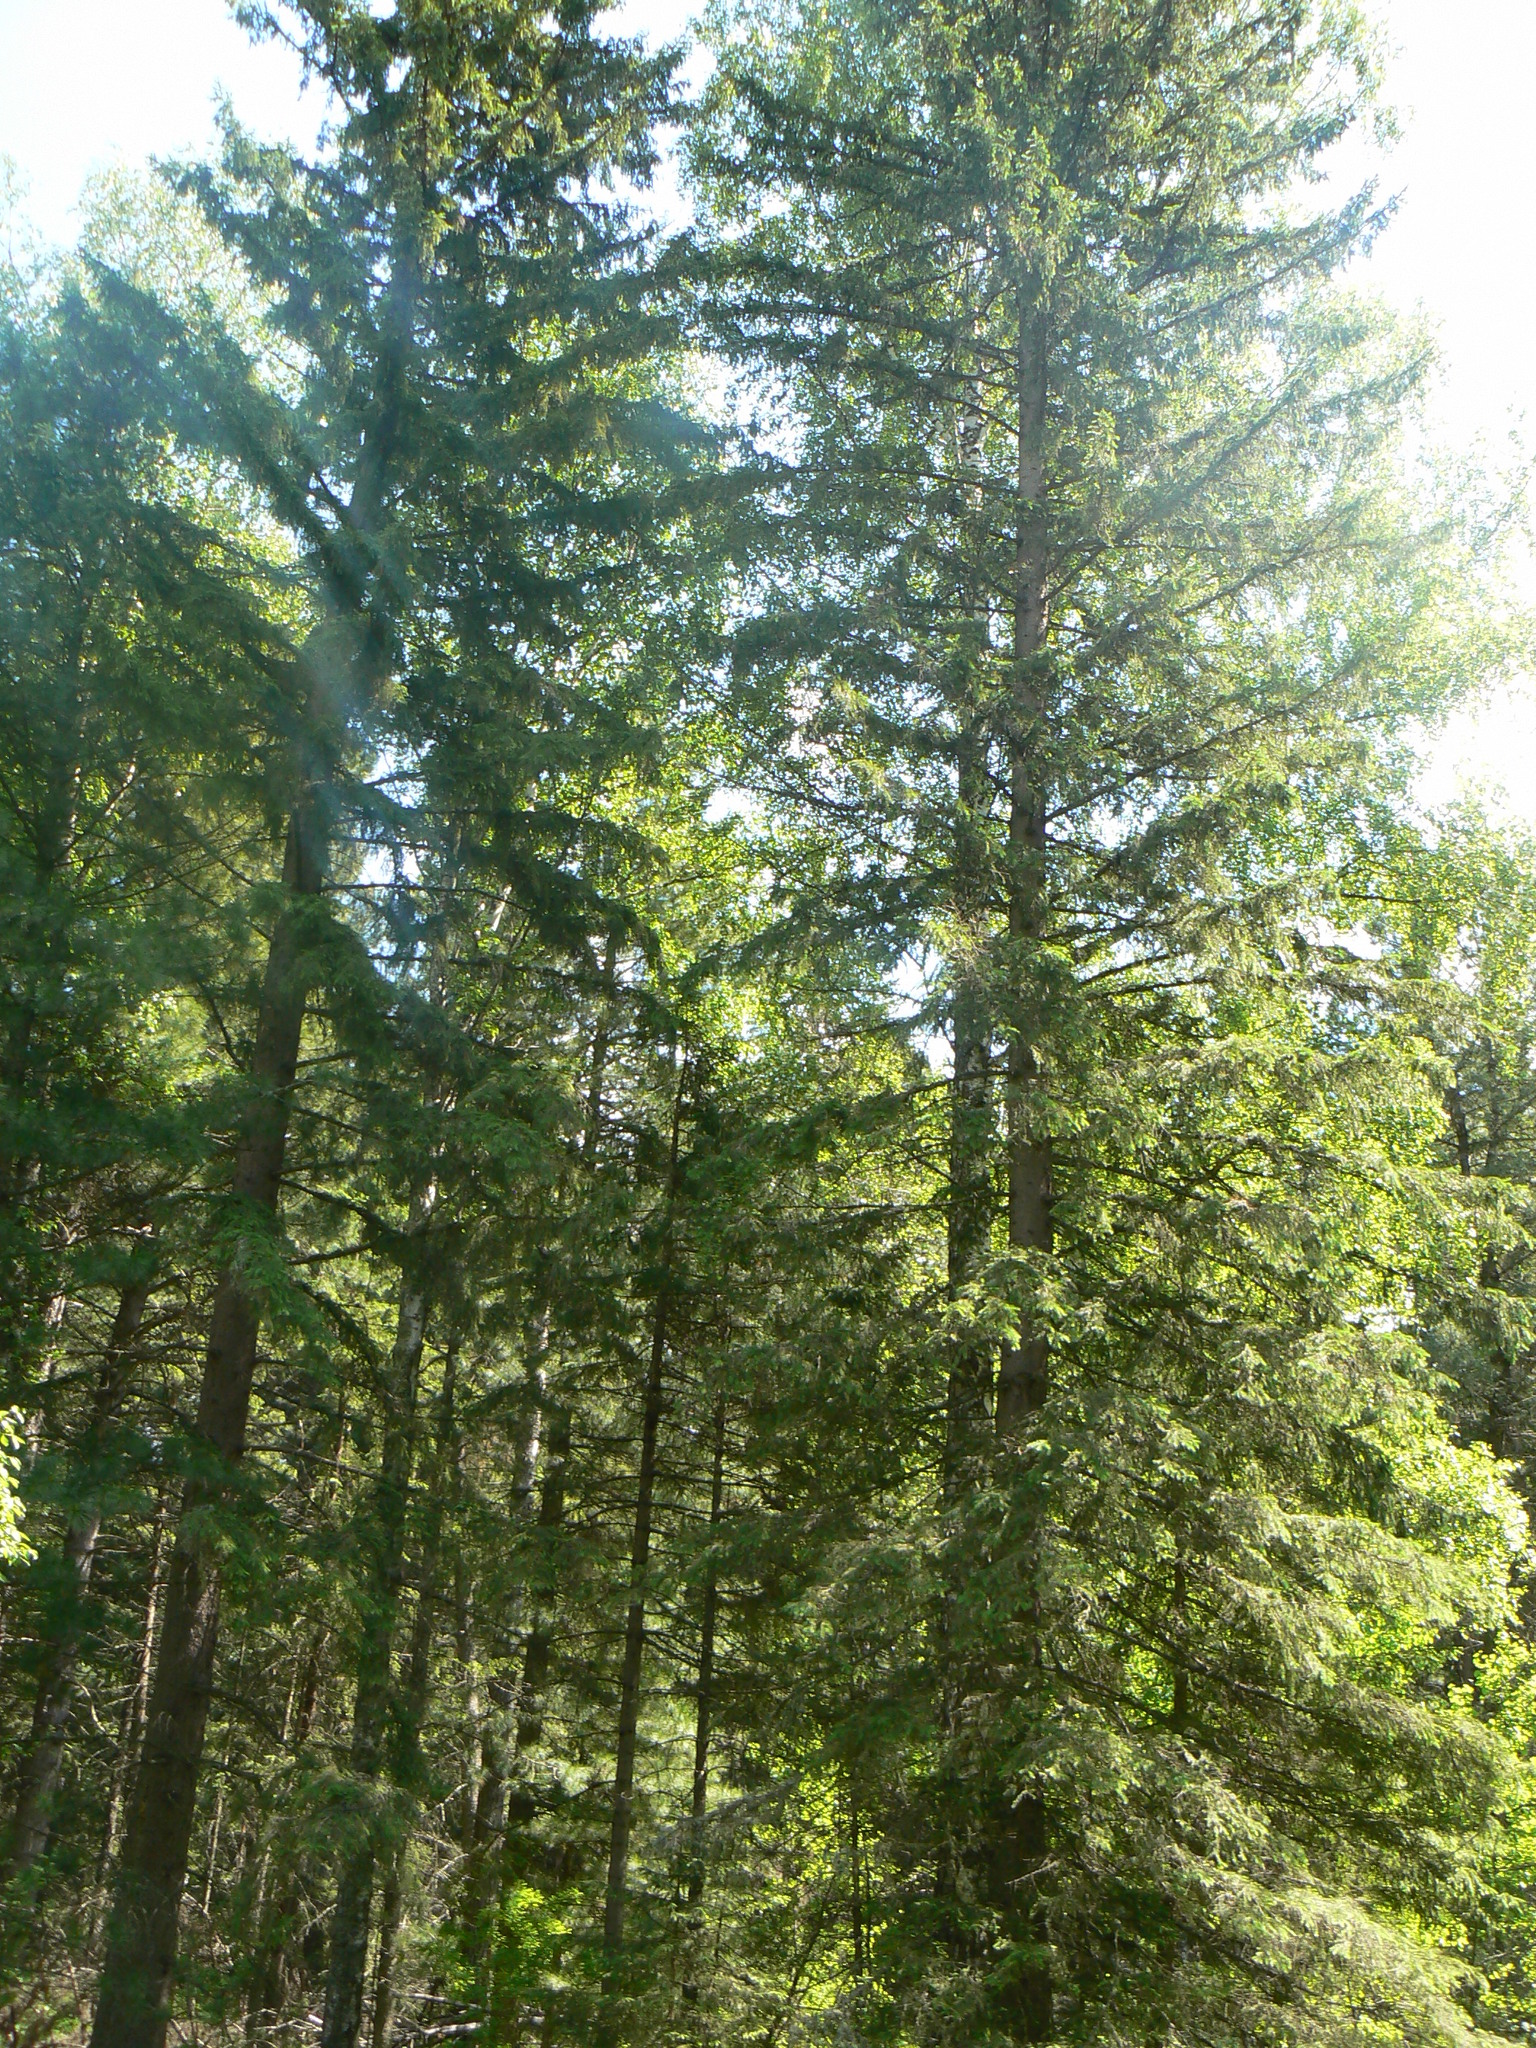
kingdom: Plantae
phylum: Tracheophyta
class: Pinopsida
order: Pinales
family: Pinaceae
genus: Abies
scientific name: Abies sibirica
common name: Siberian fir
